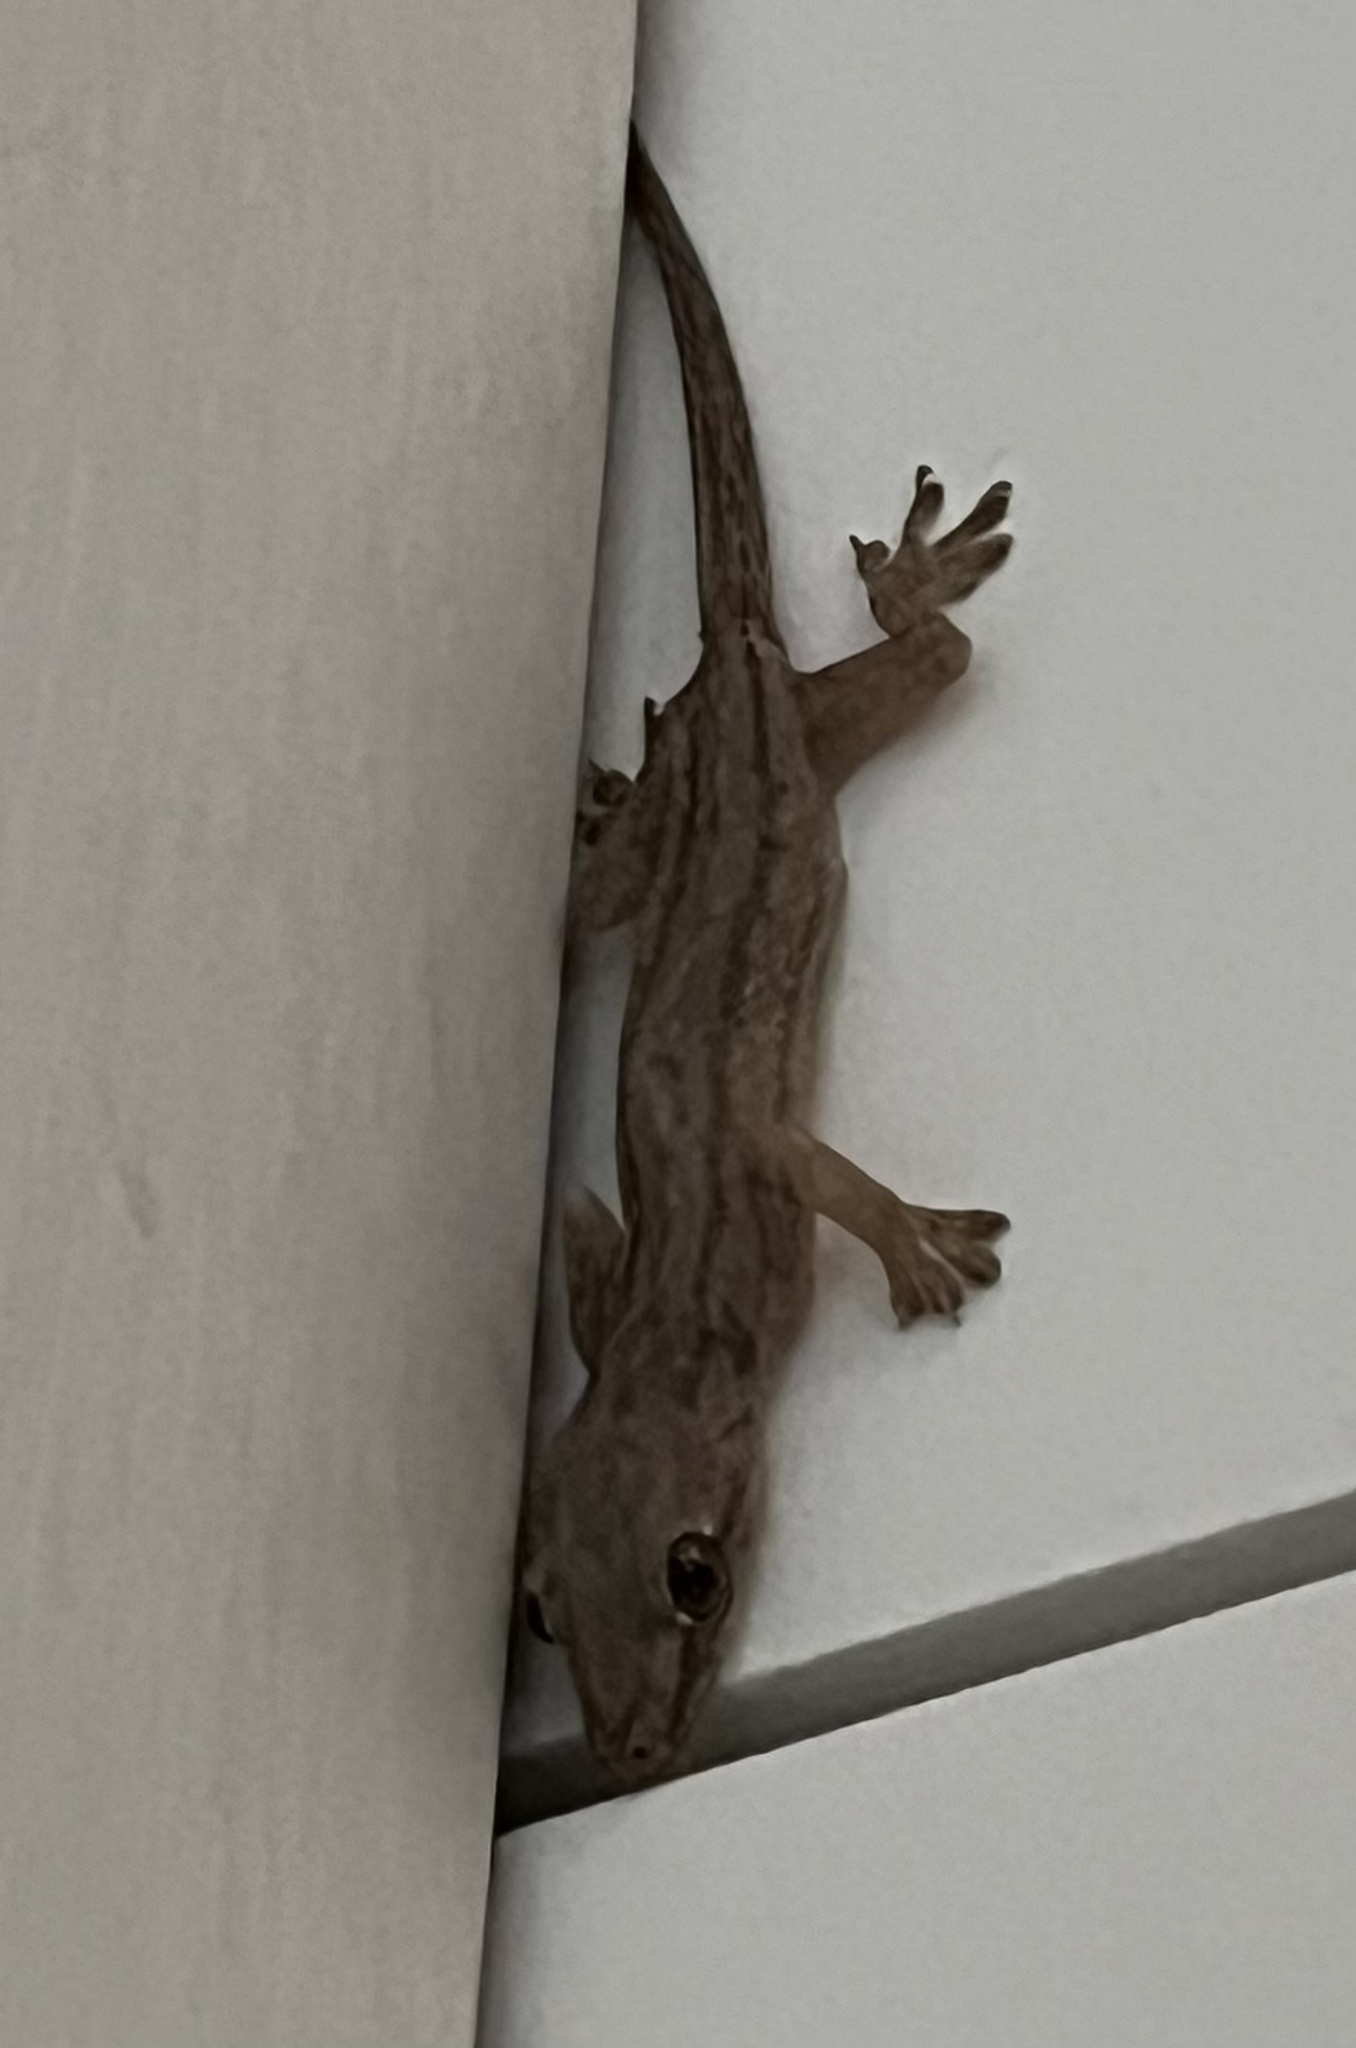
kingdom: Animalia
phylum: Chordata
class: Squamata
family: Gekkonidae
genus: Hemidactylus
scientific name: Hemidactylus frenatus
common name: Common house gecko
